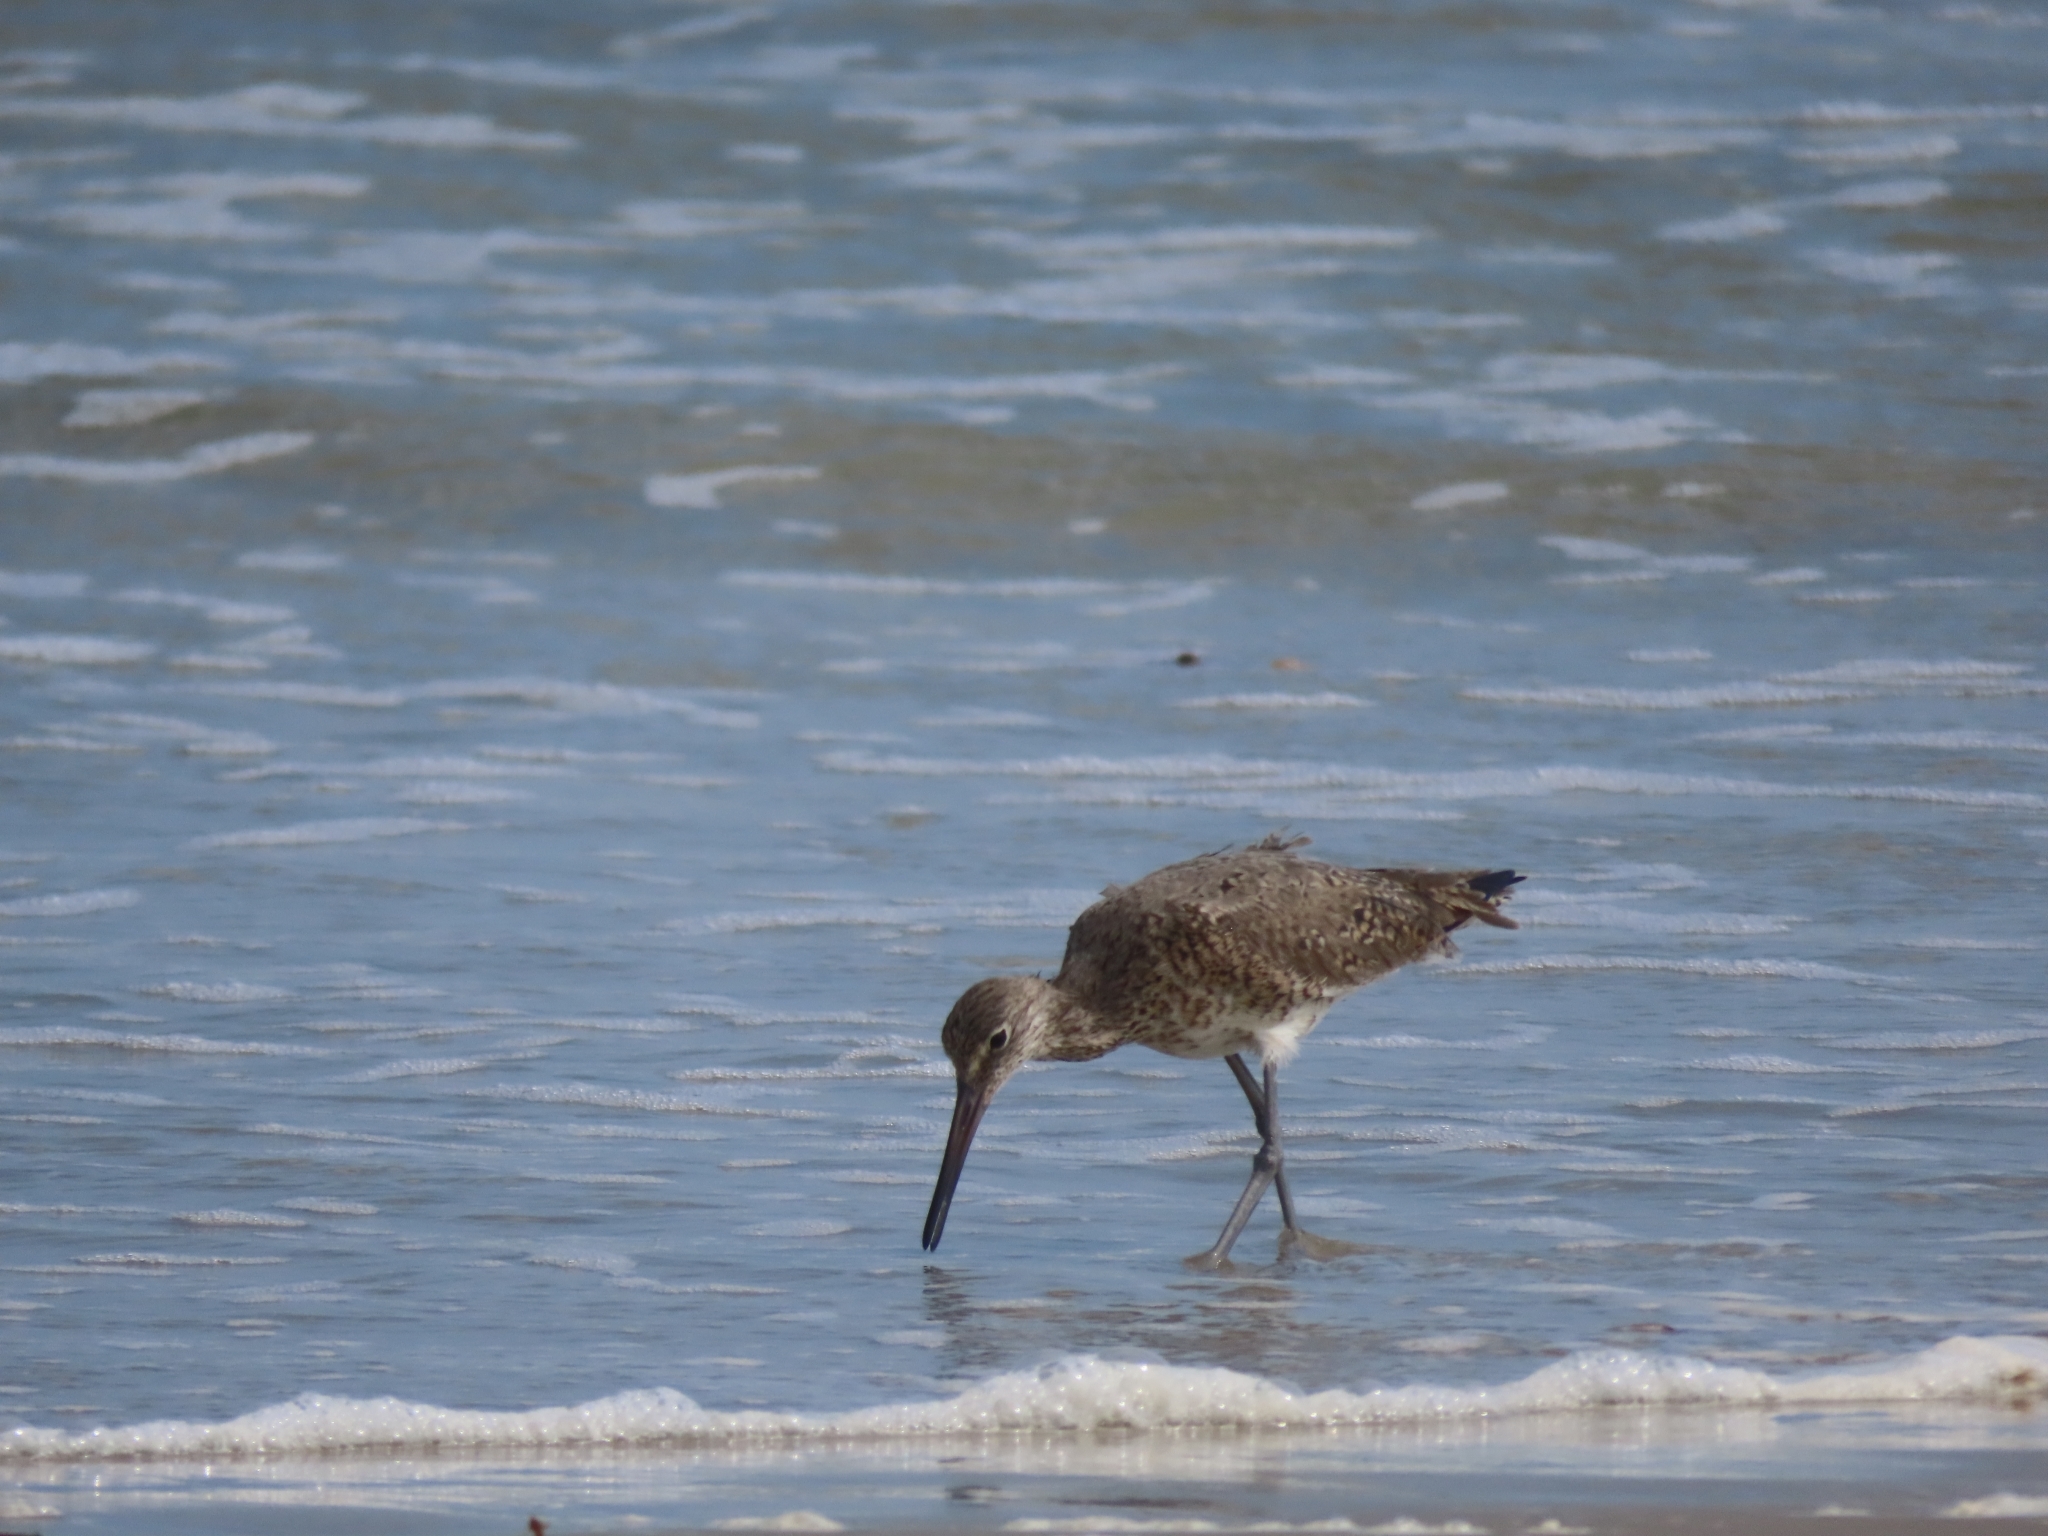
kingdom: Animalia
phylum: Chordata
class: Aves
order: Charadriiformes
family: Scolopacidae
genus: Tringa
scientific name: Tringa semipalmata
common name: Willet
